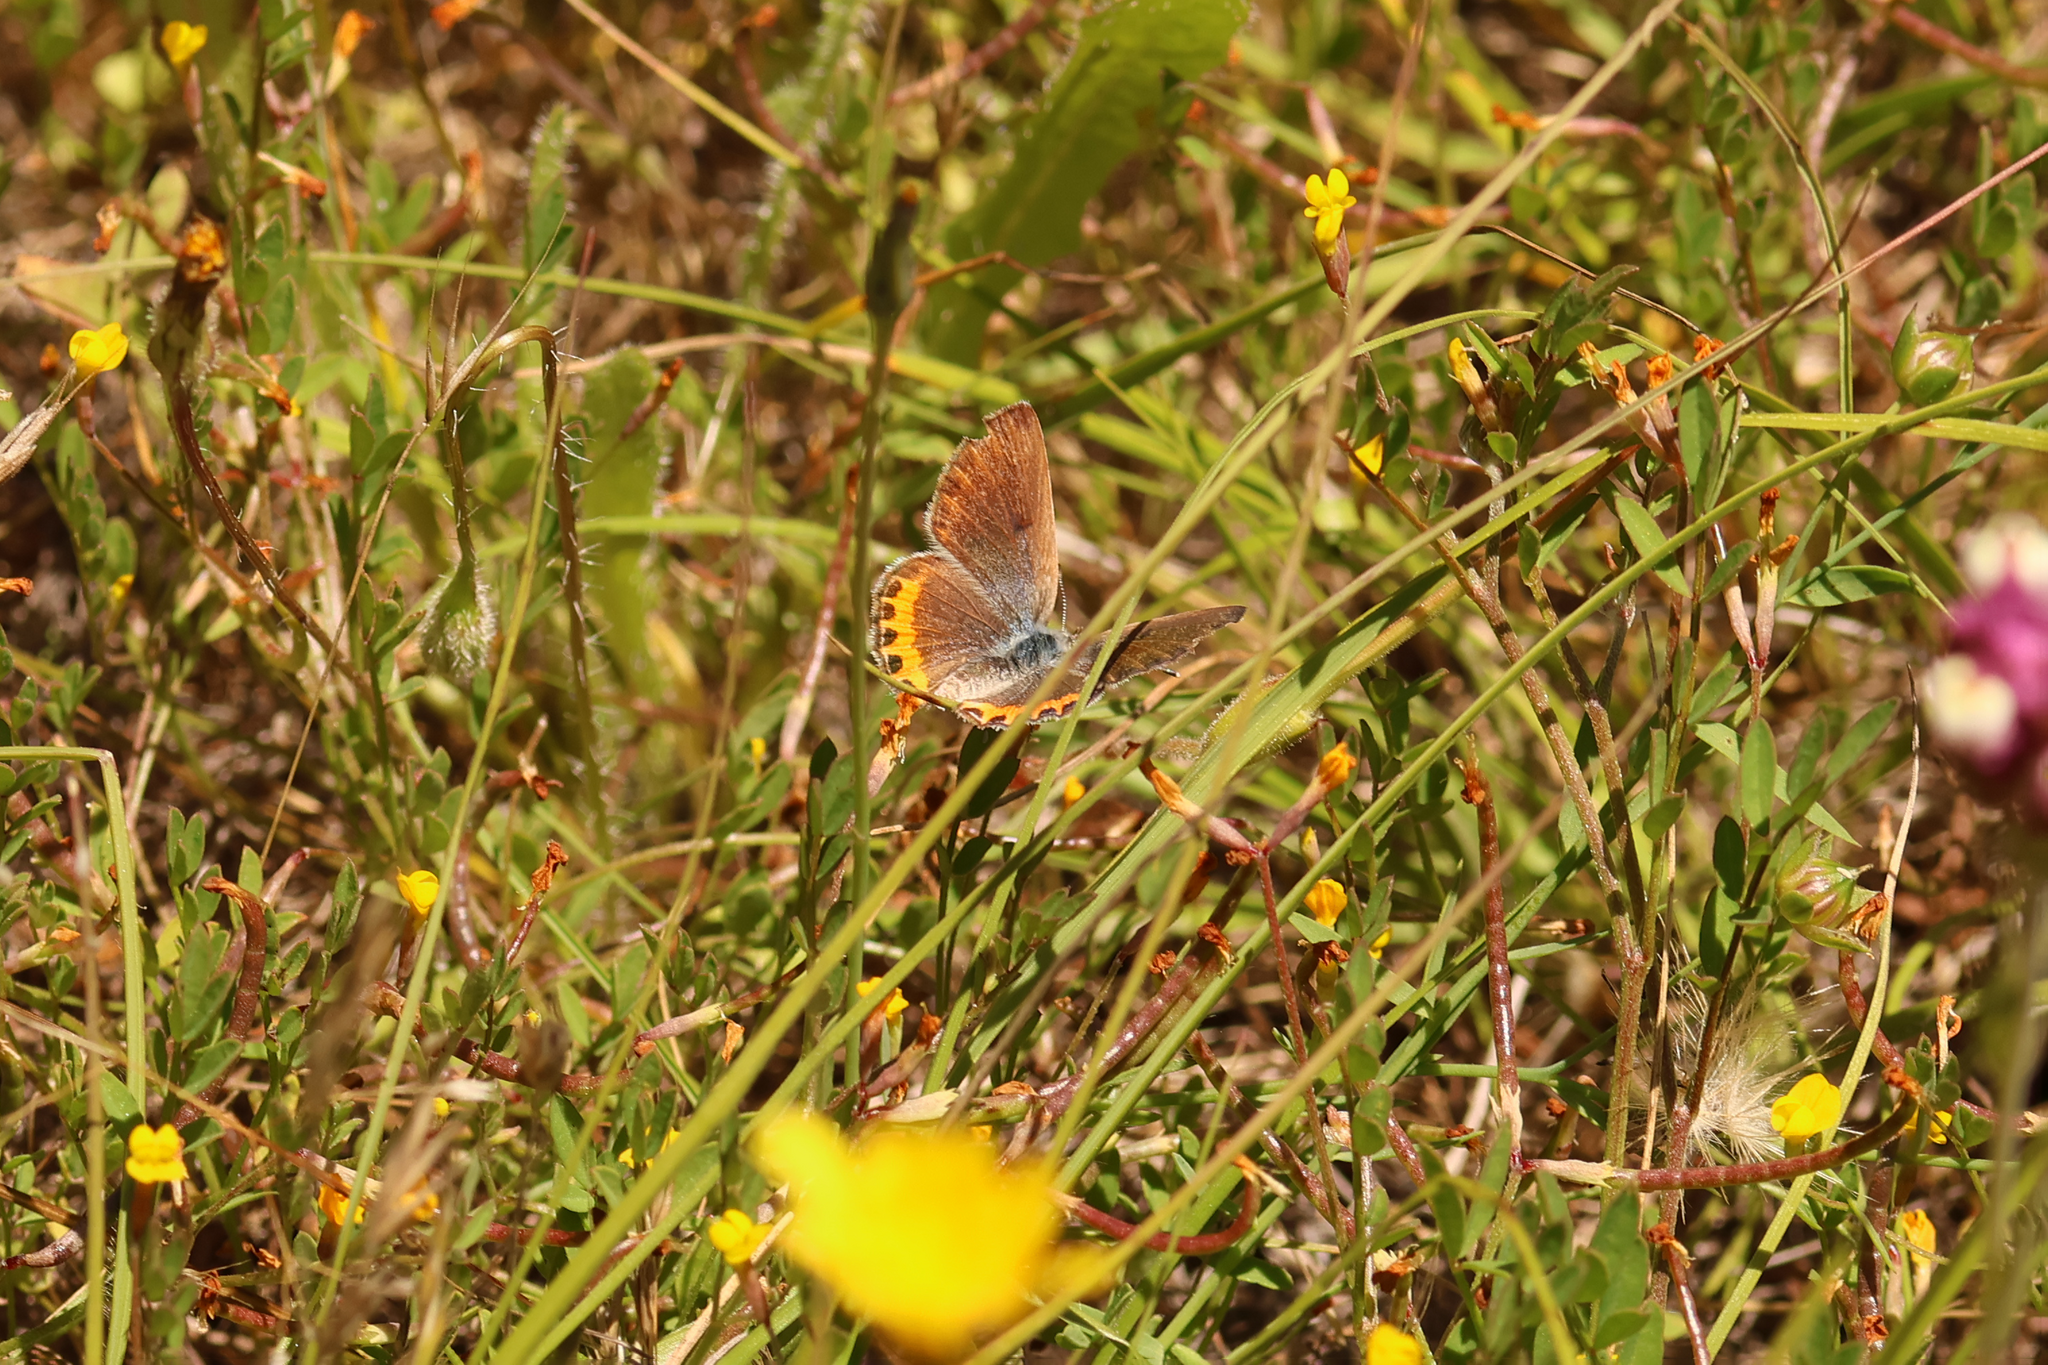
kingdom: Animalia
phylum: Arthropoda
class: Insecta
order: Lepidoptera
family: Lycaenidae
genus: Icaricia
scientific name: Icaricia acmon
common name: Acmon blue
